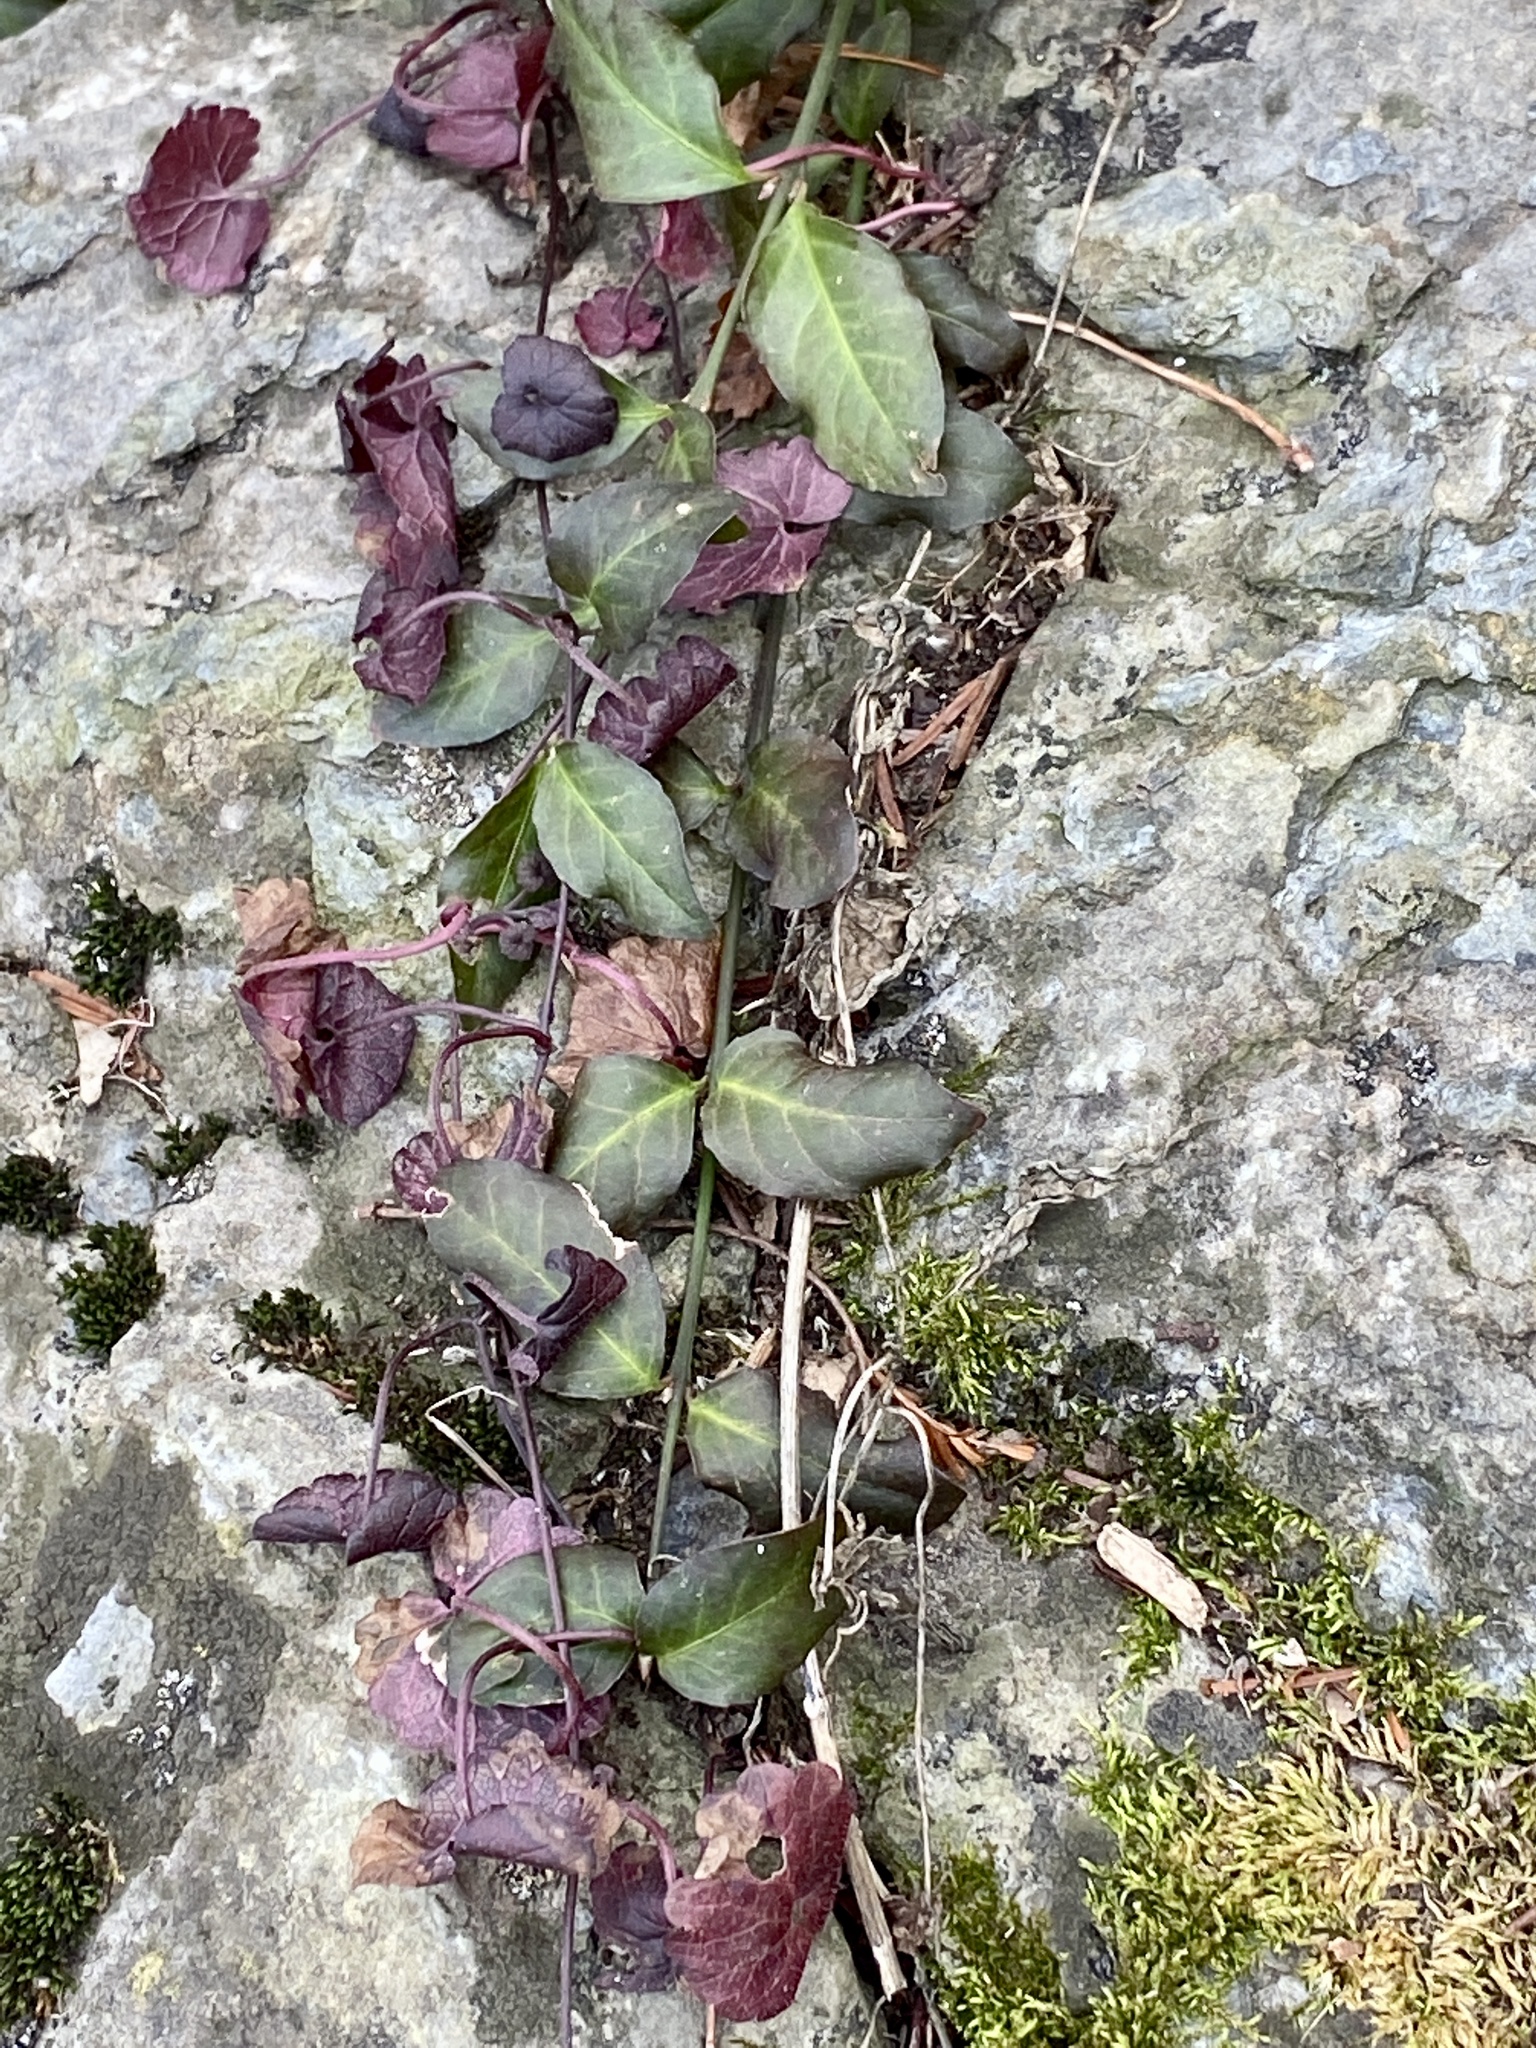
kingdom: Plantae
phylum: Tracheophyta
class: Magnoliopsida
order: Celastrales
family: Celastraceae
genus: Euonymus
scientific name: Euonymus fortunei
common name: Climbing euonymus
